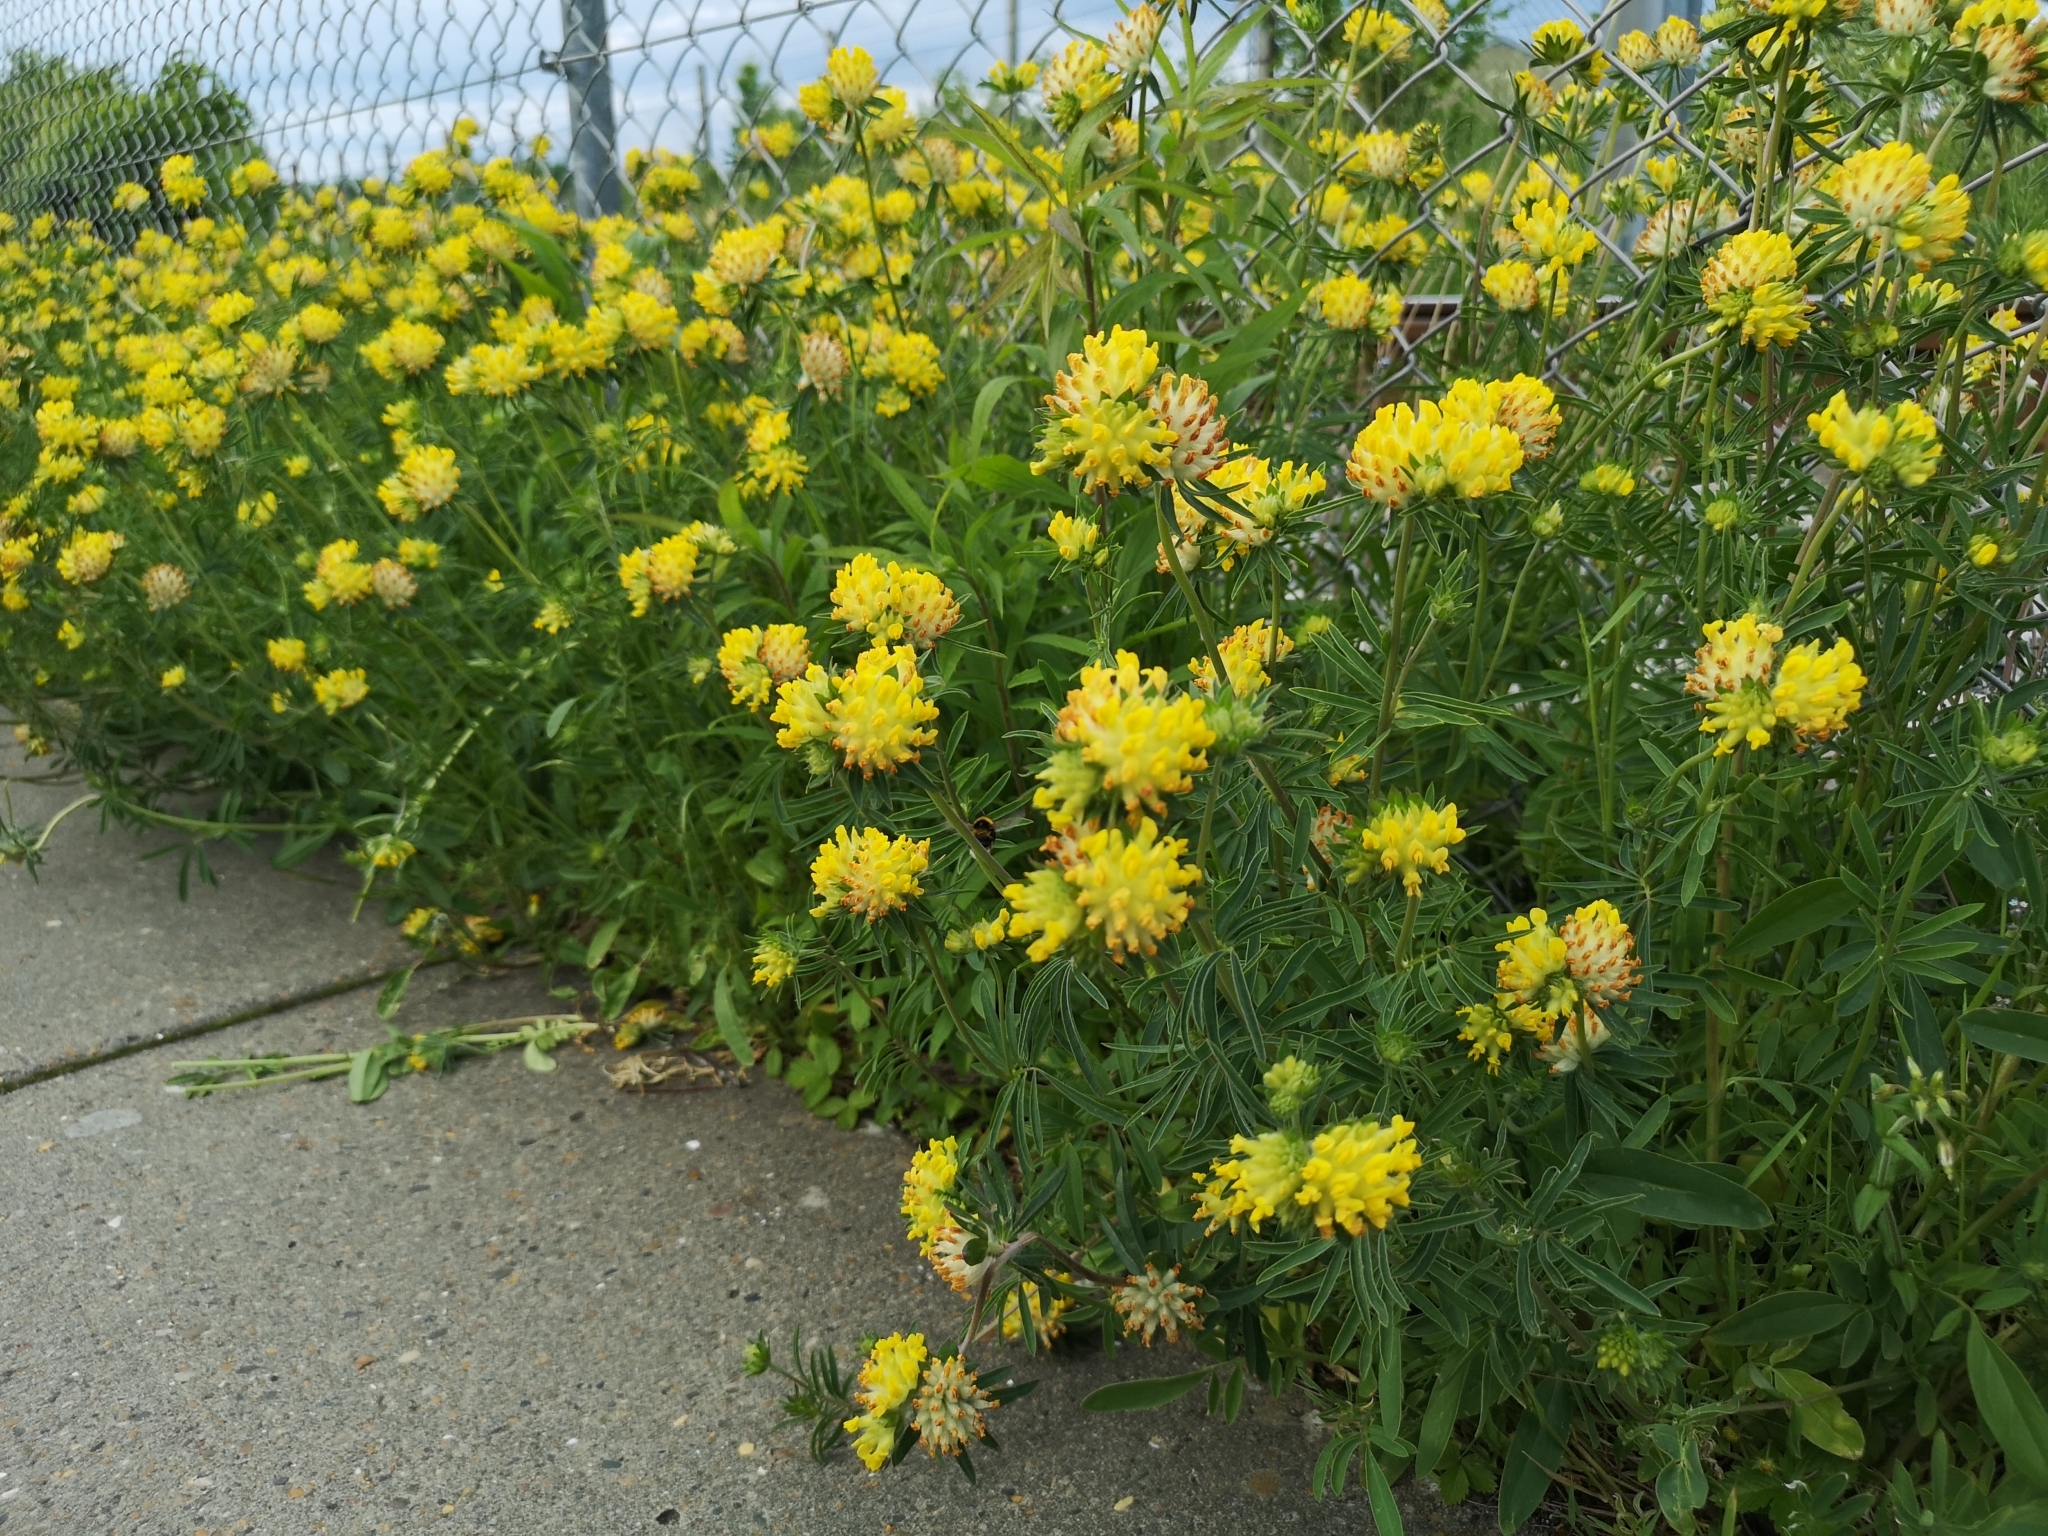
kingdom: Plantae
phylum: Tracheophyta
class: Magnoliopsida
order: Fabales
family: Fabaceae
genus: Anthyllis
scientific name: Anthyllis vulneraria
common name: Kidney vetch
